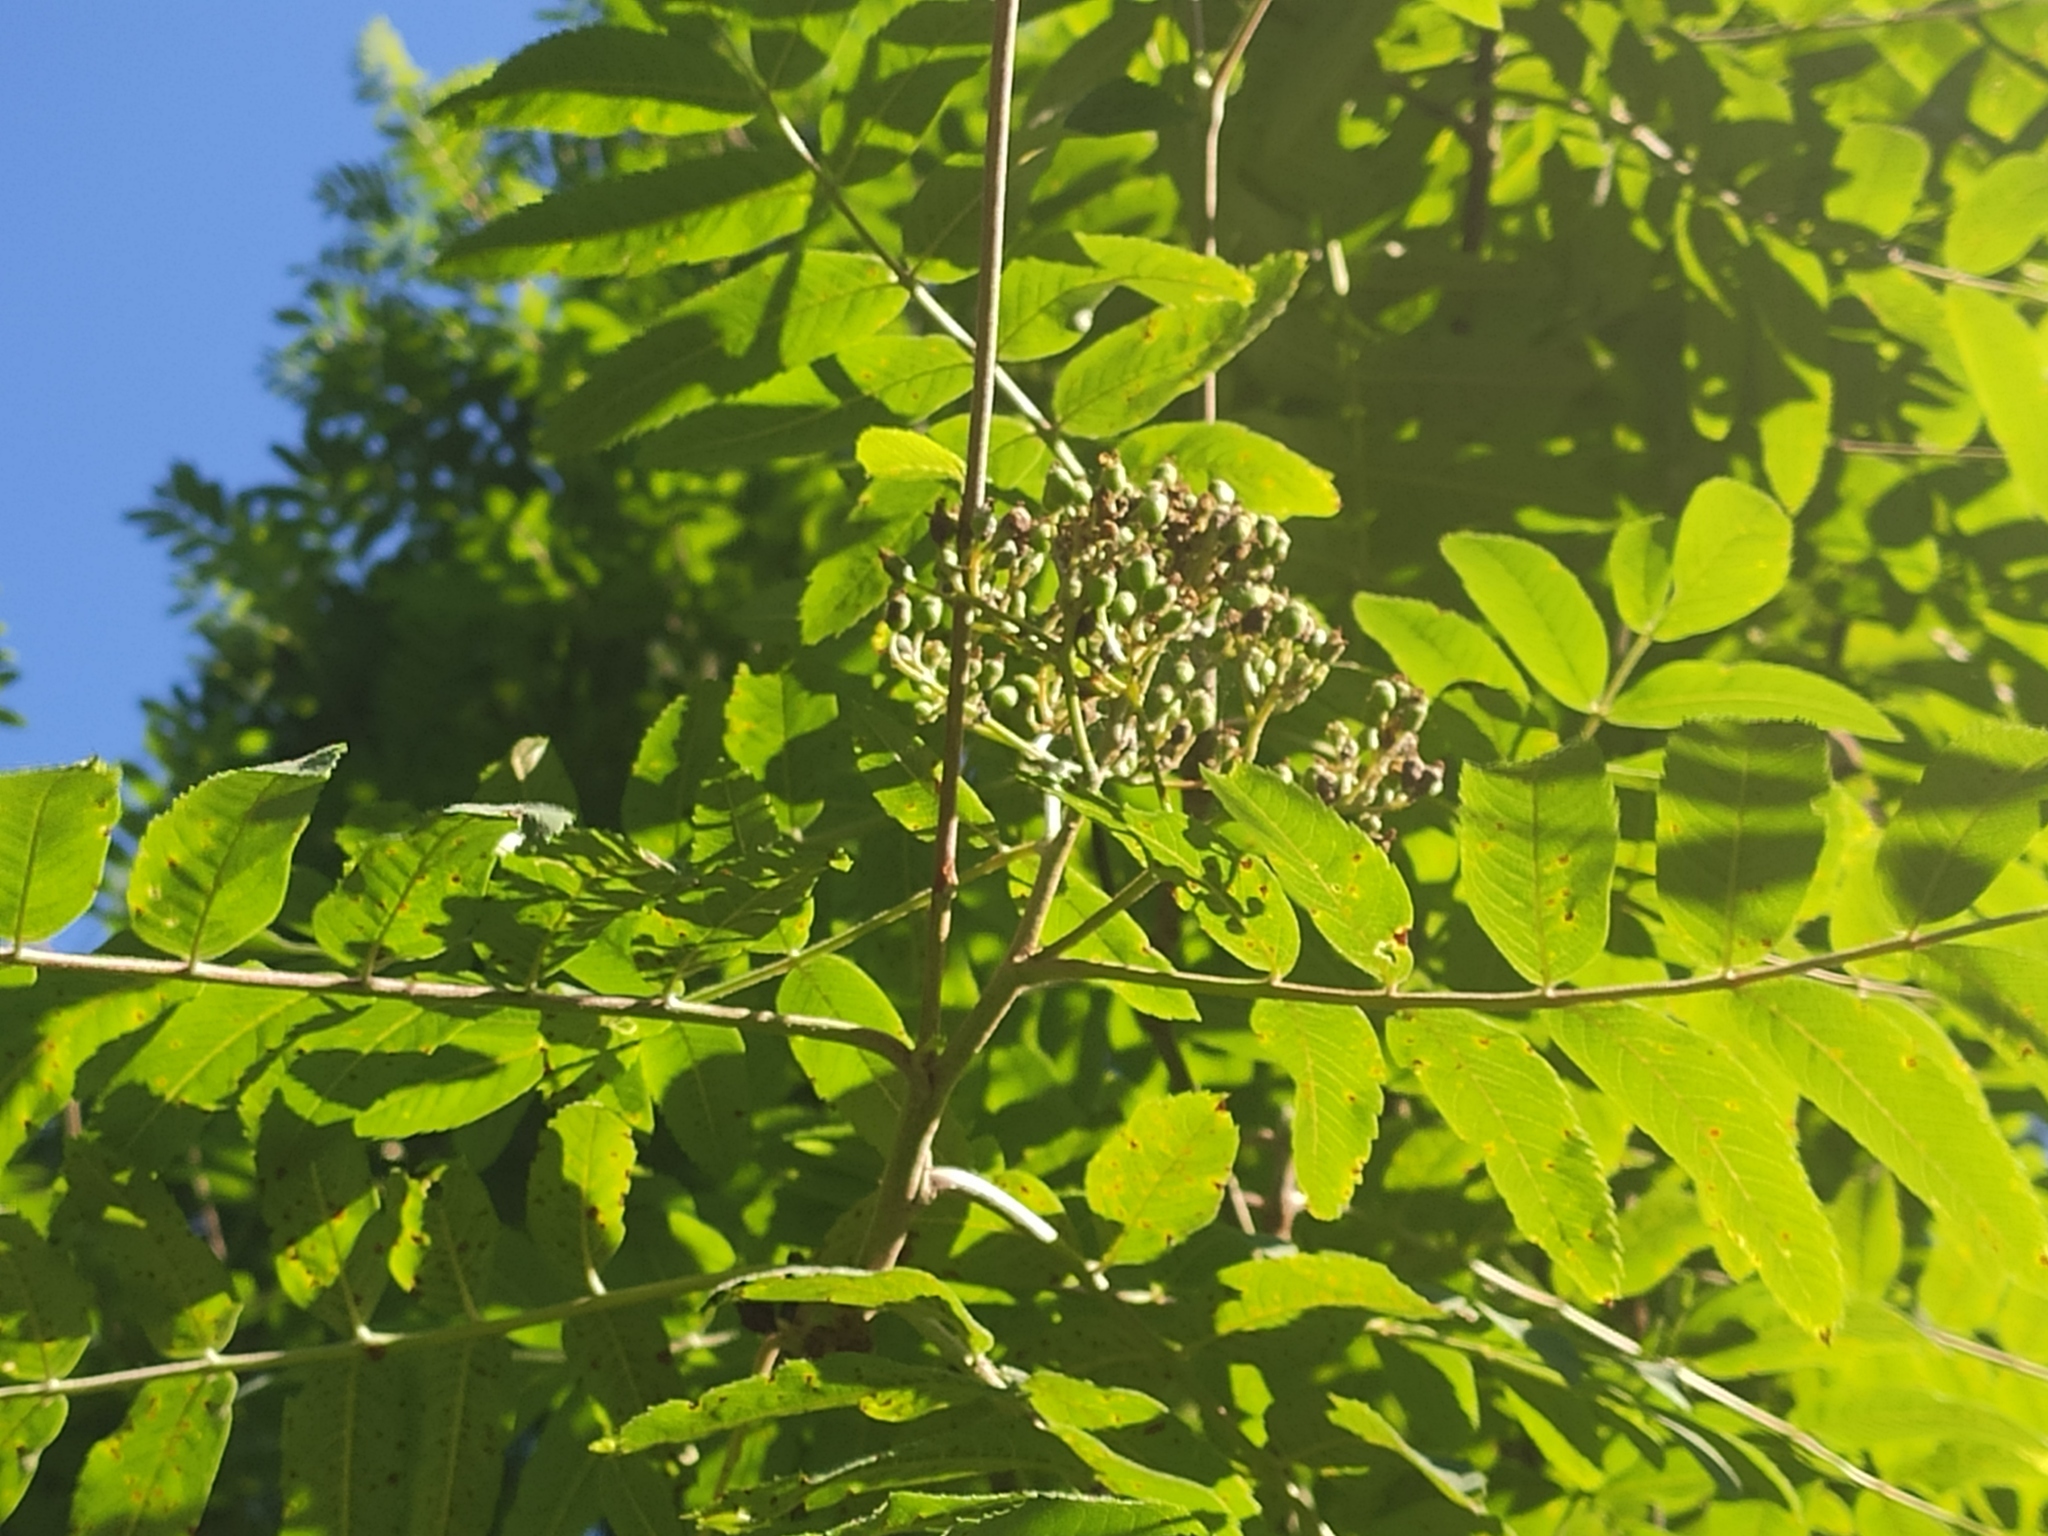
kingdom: Plantae
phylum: Tracheophyta
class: Magnoliopsida
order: Rosales
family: Rosaceae
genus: Sorbus
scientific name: Sorbus aucuparia
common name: Rowan
